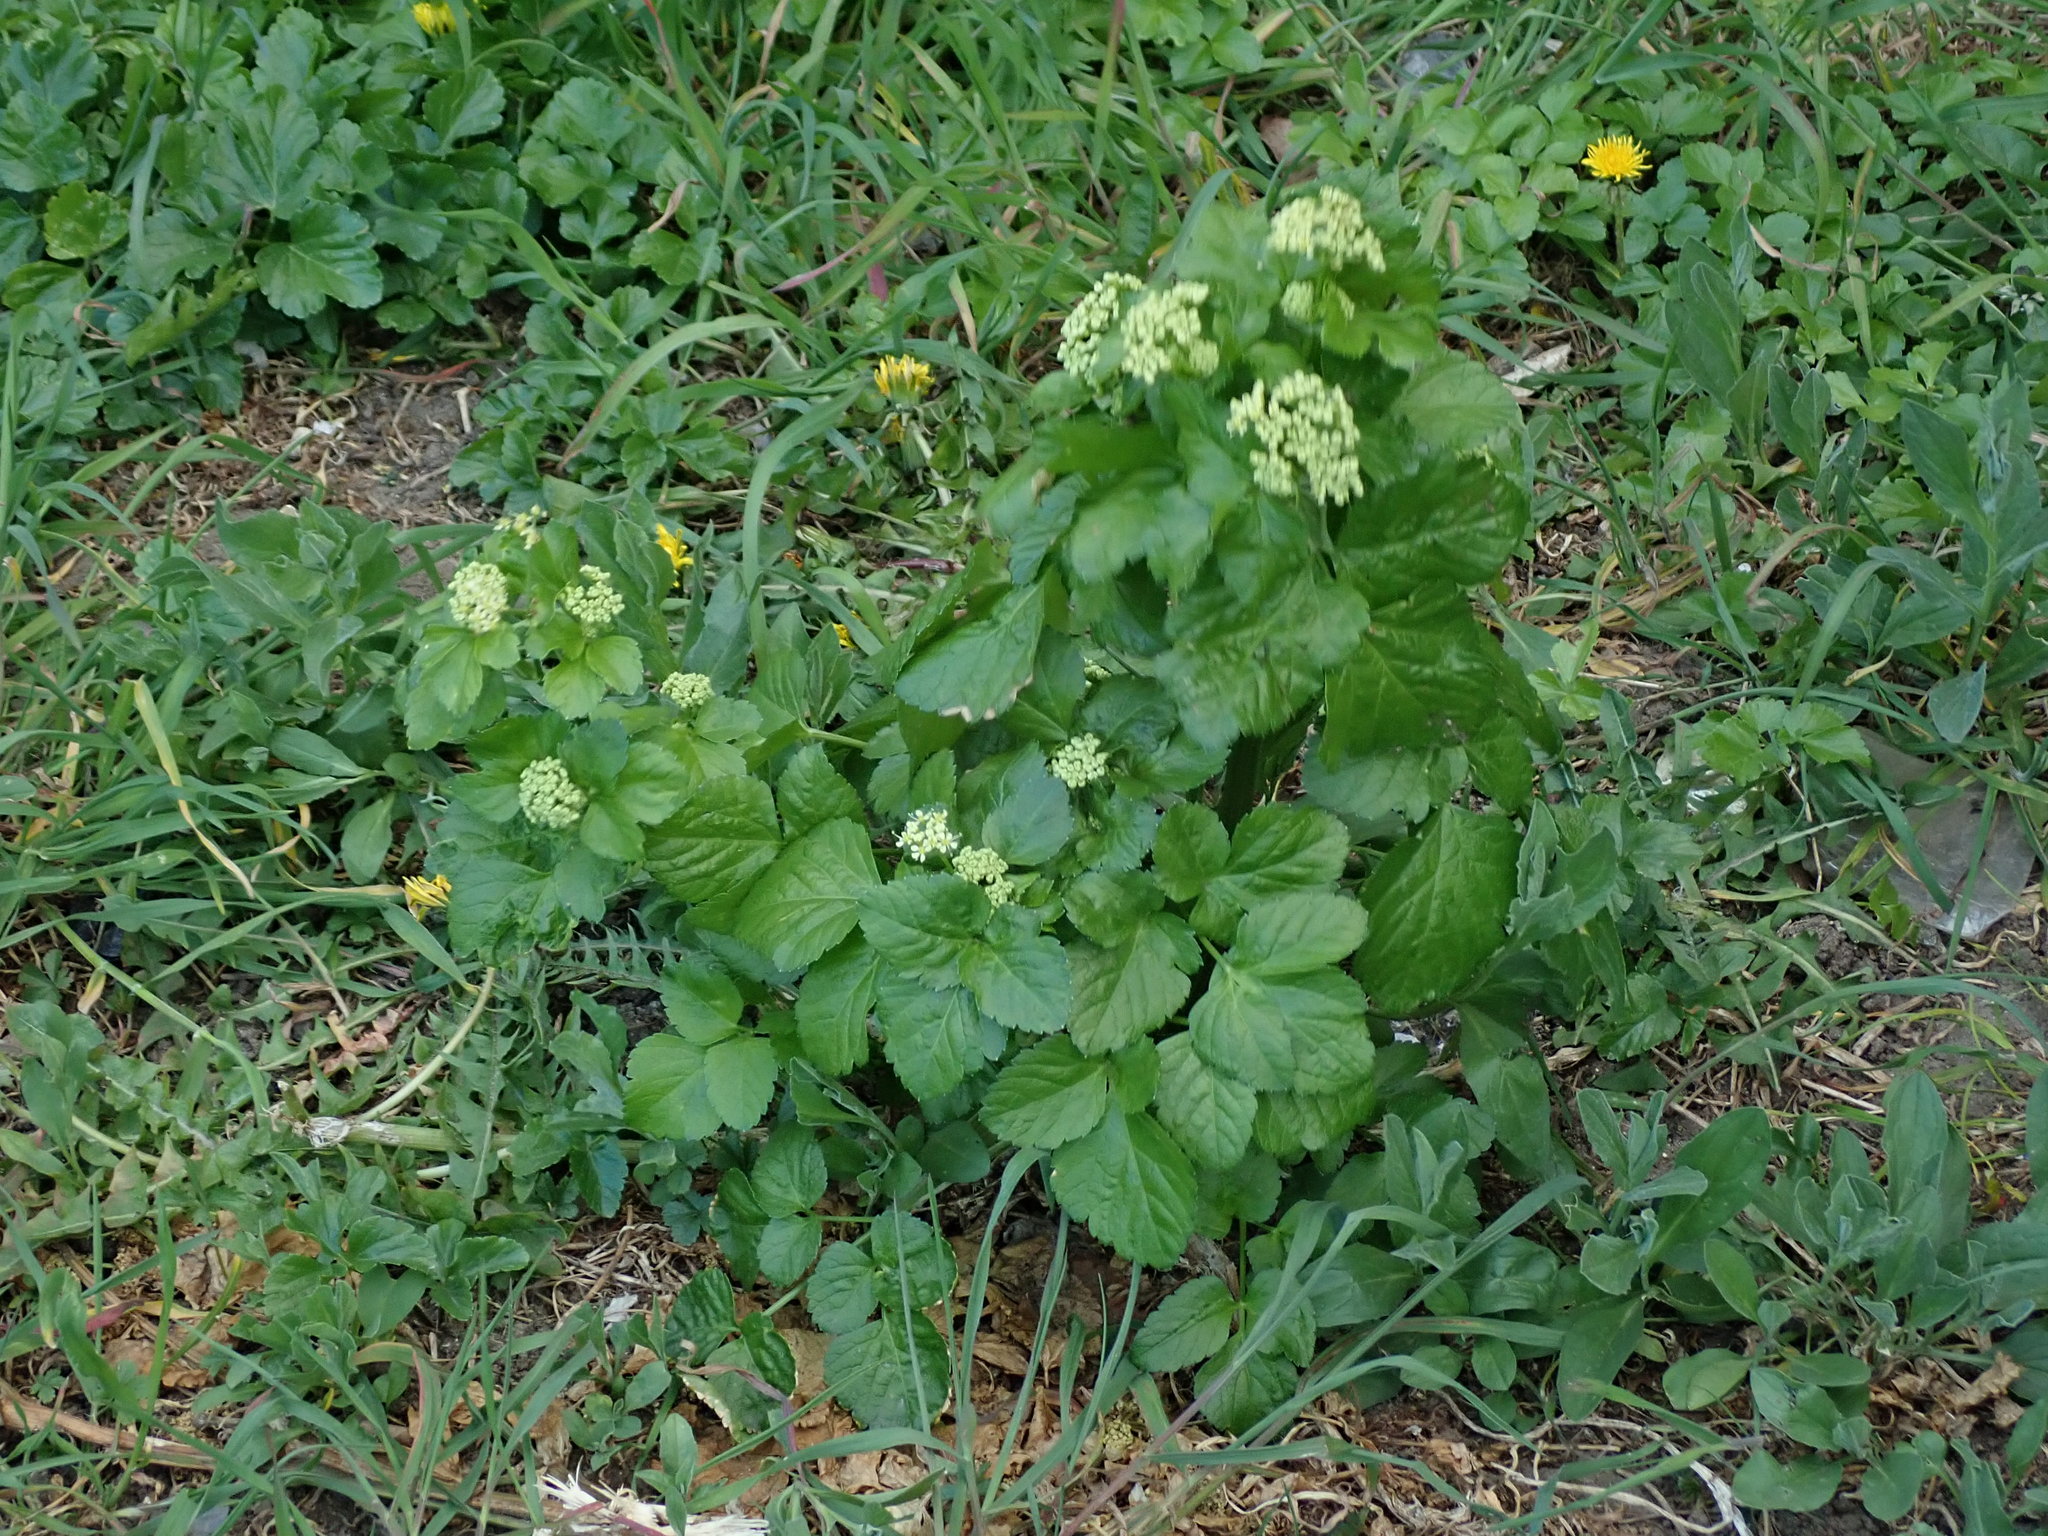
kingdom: Plantae
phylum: Tracheophyta
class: Magnoliopsida
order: Apiales
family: Apiaceae
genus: Smyrnium
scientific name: Smyrnium olusatrum
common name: Alexanders
